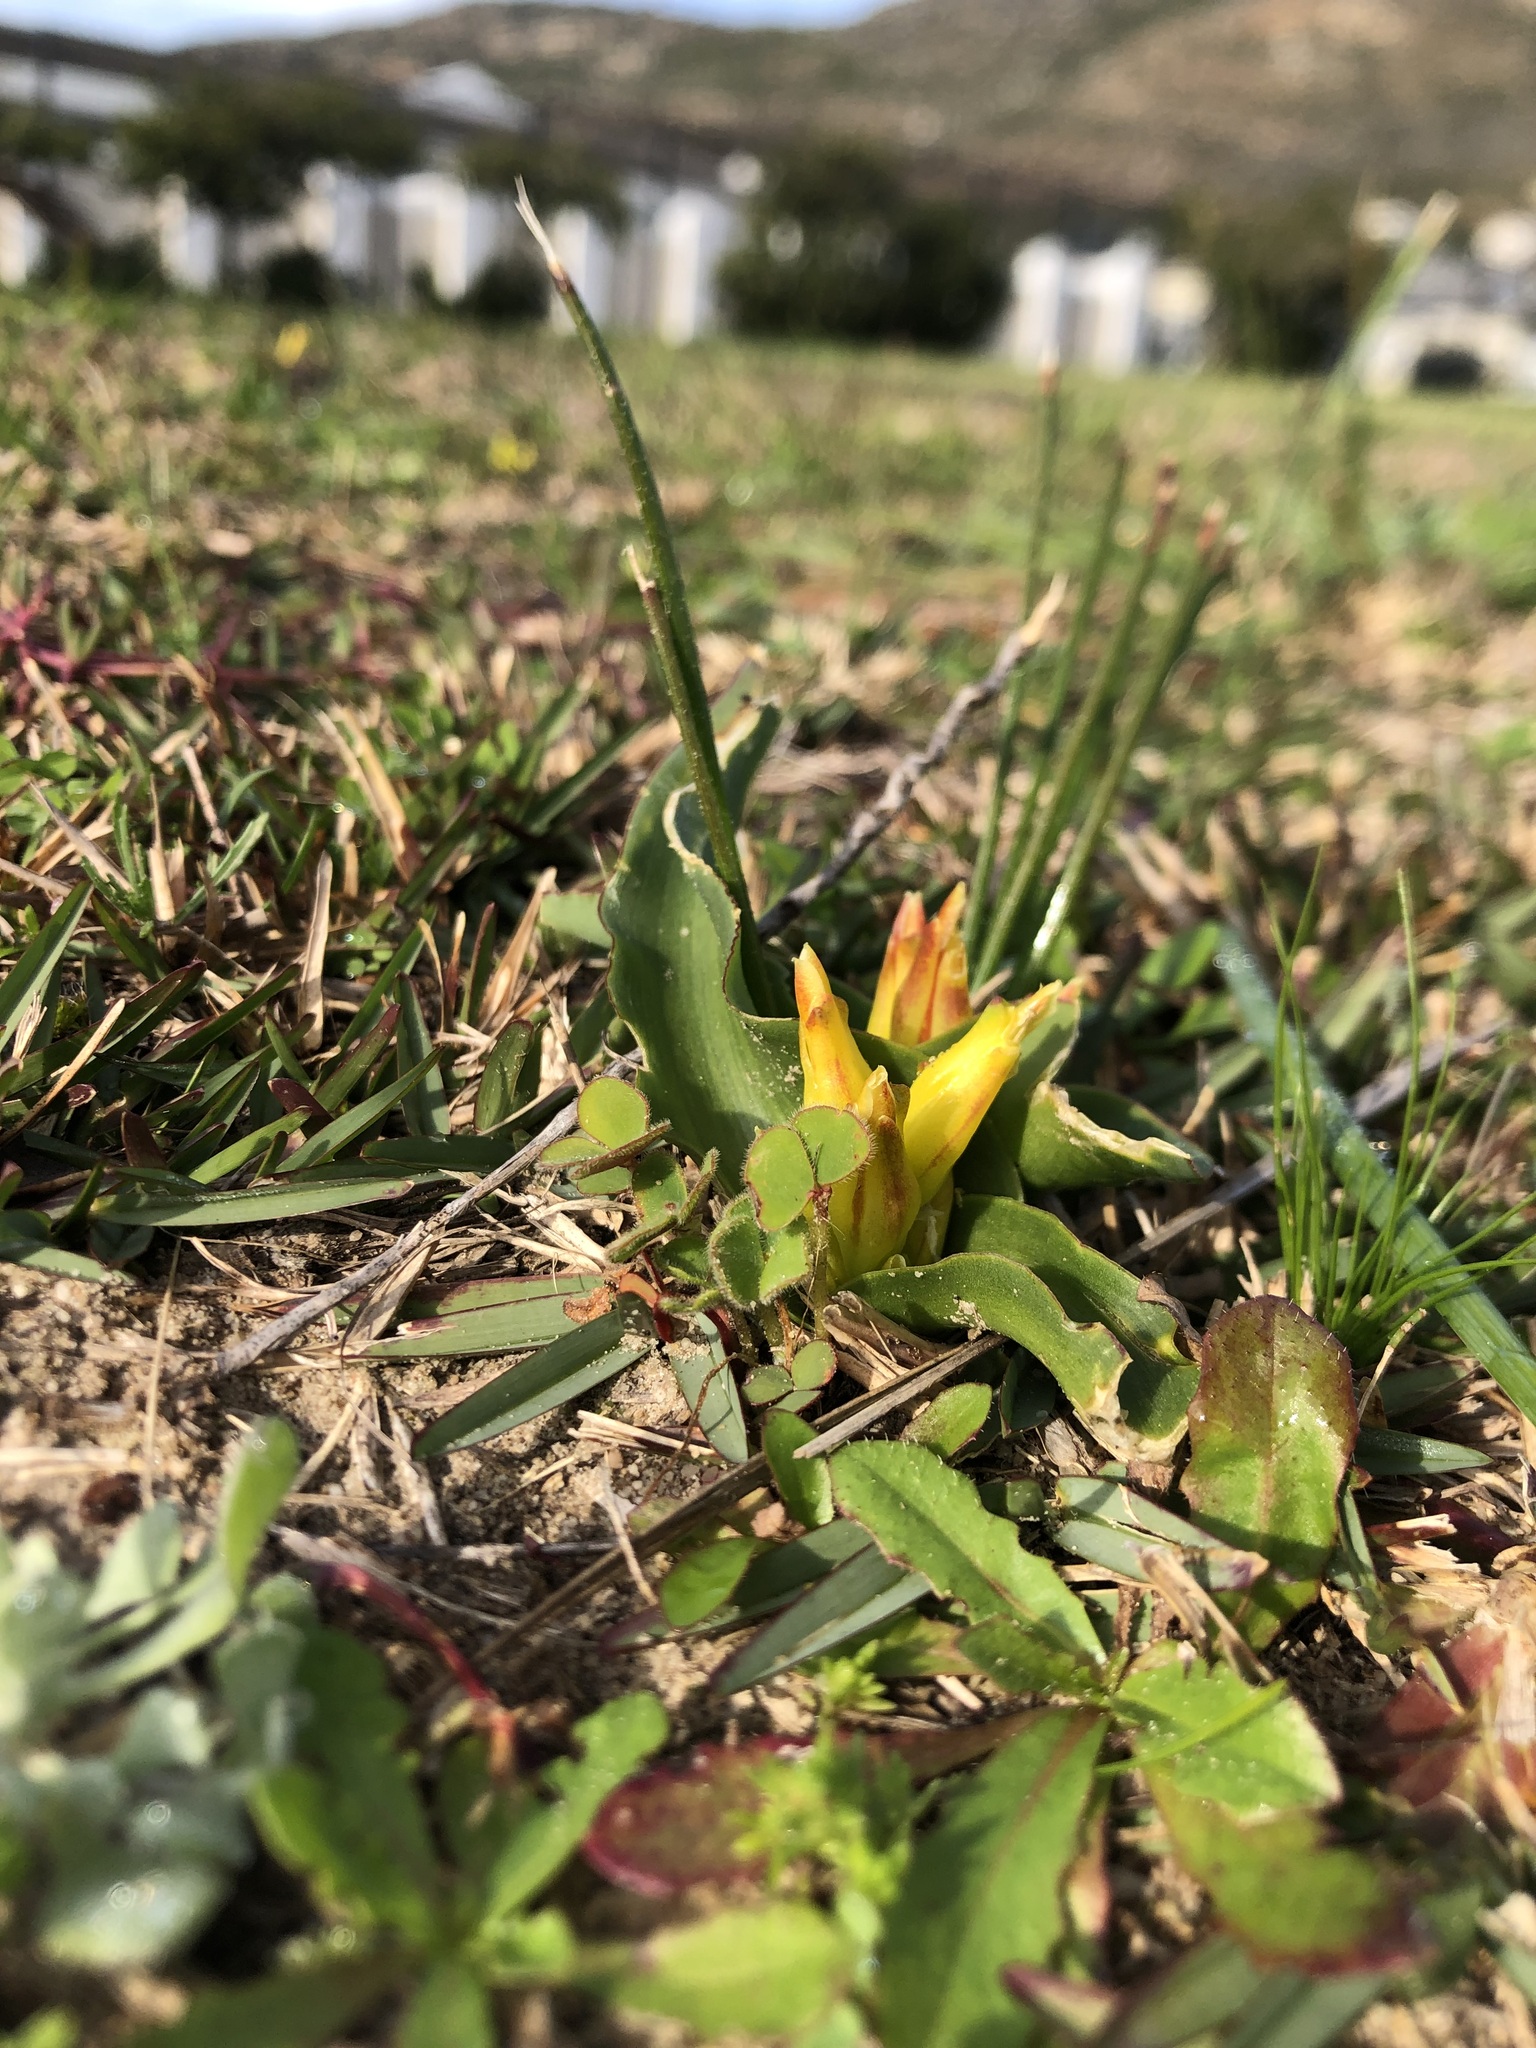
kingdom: Plantae
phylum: Tracheophyta
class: Liliopsida
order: Asparagales
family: Asparagaceae
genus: Lachenalia
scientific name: Lachenalia reflexa
